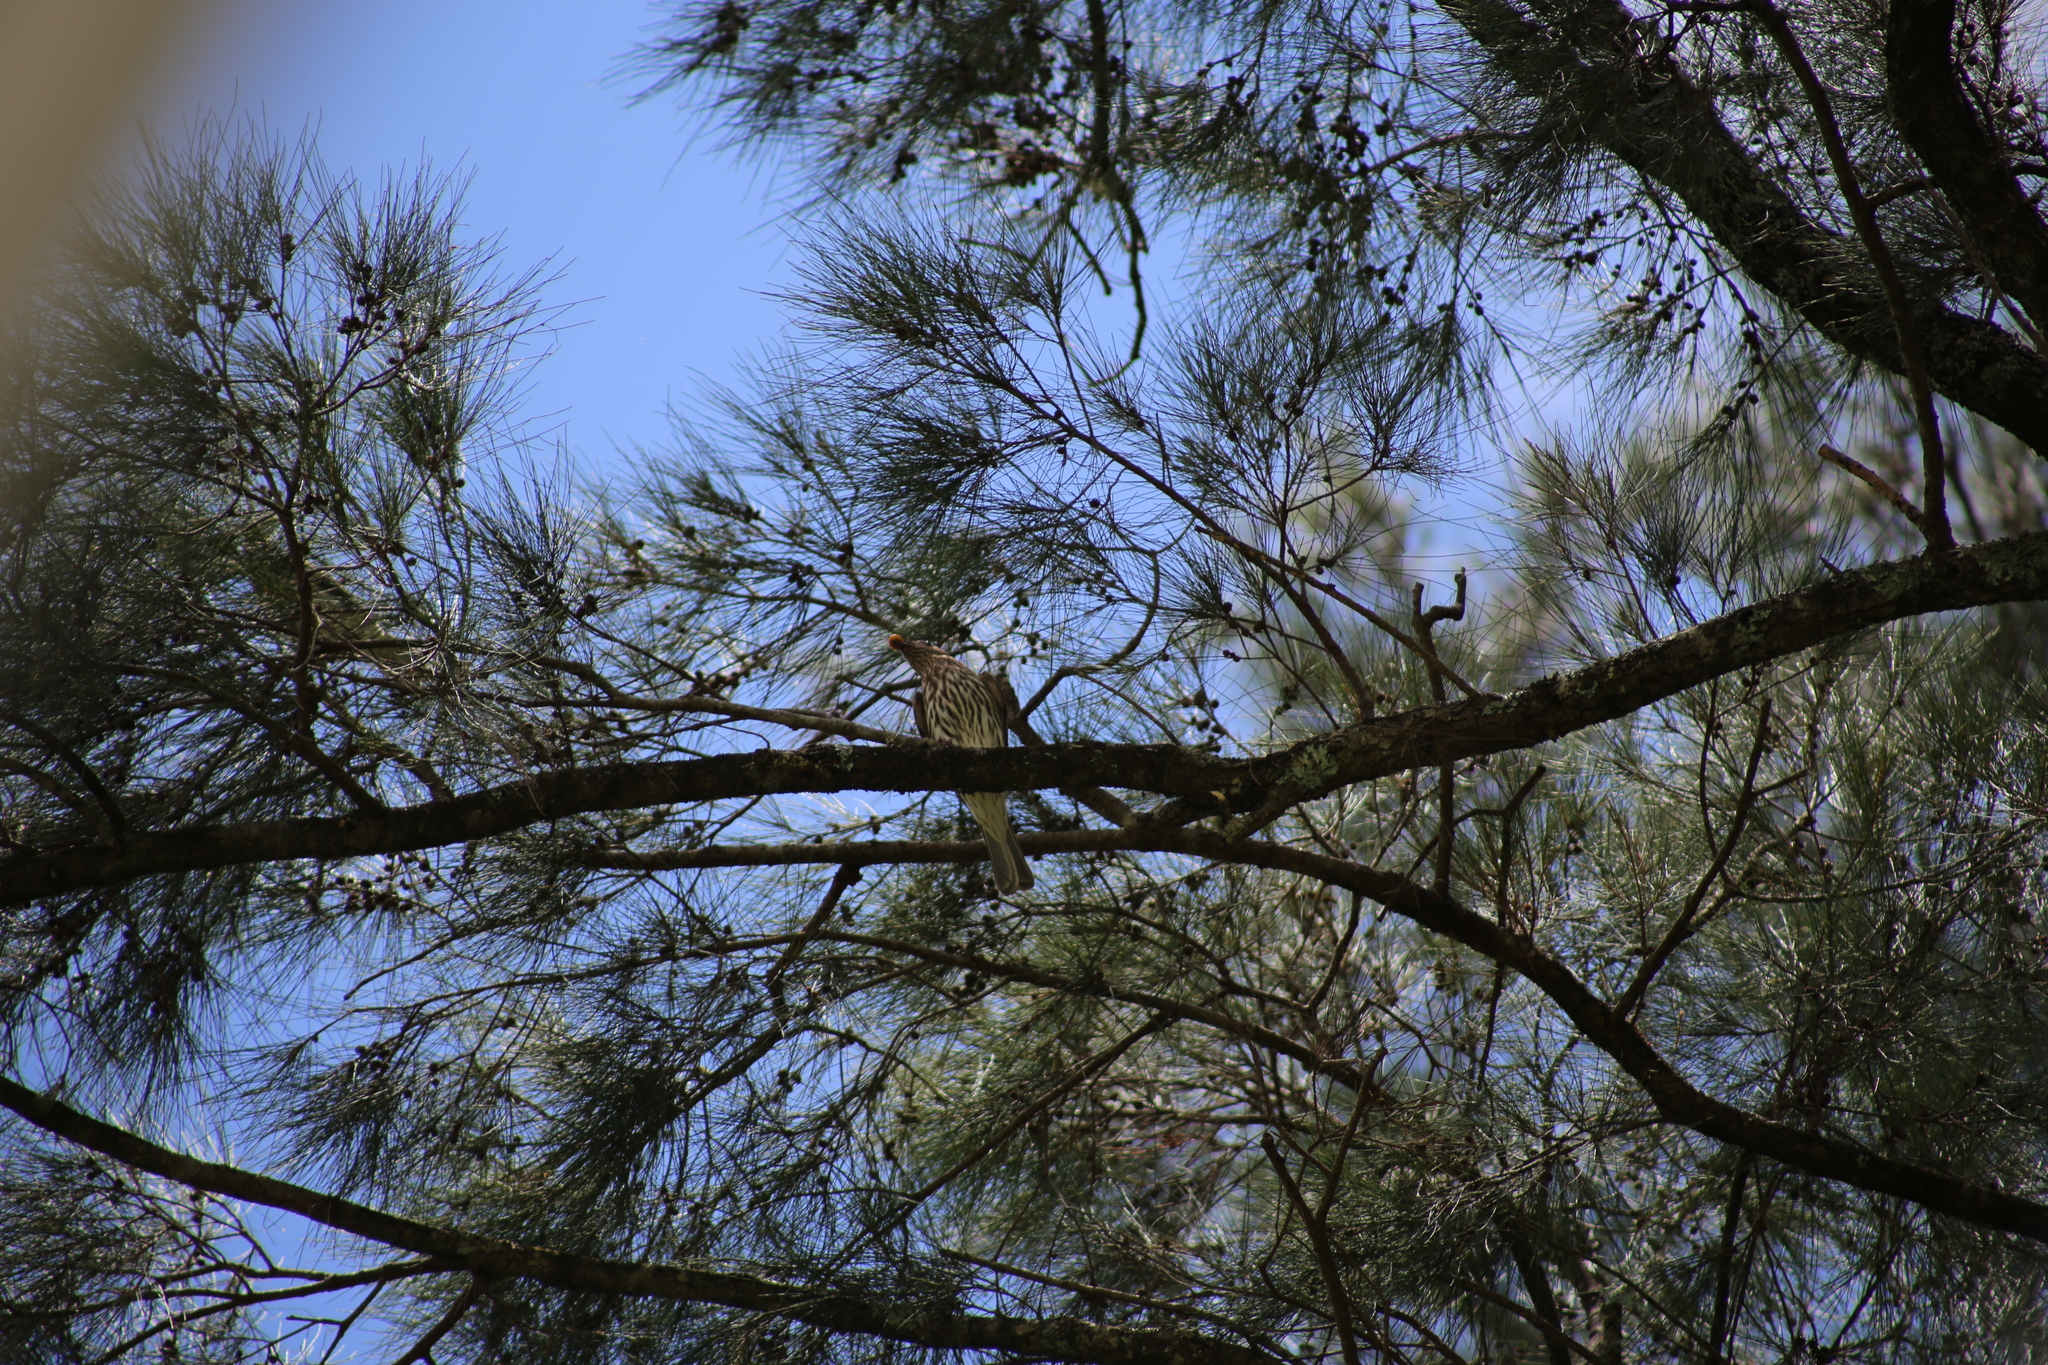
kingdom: Animalia
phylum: Chordata
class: Aves
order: Passeriformes
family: Oriolidae
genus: Oriolus
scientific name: Oriolus sagittatus
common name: Olive-backed oriole
